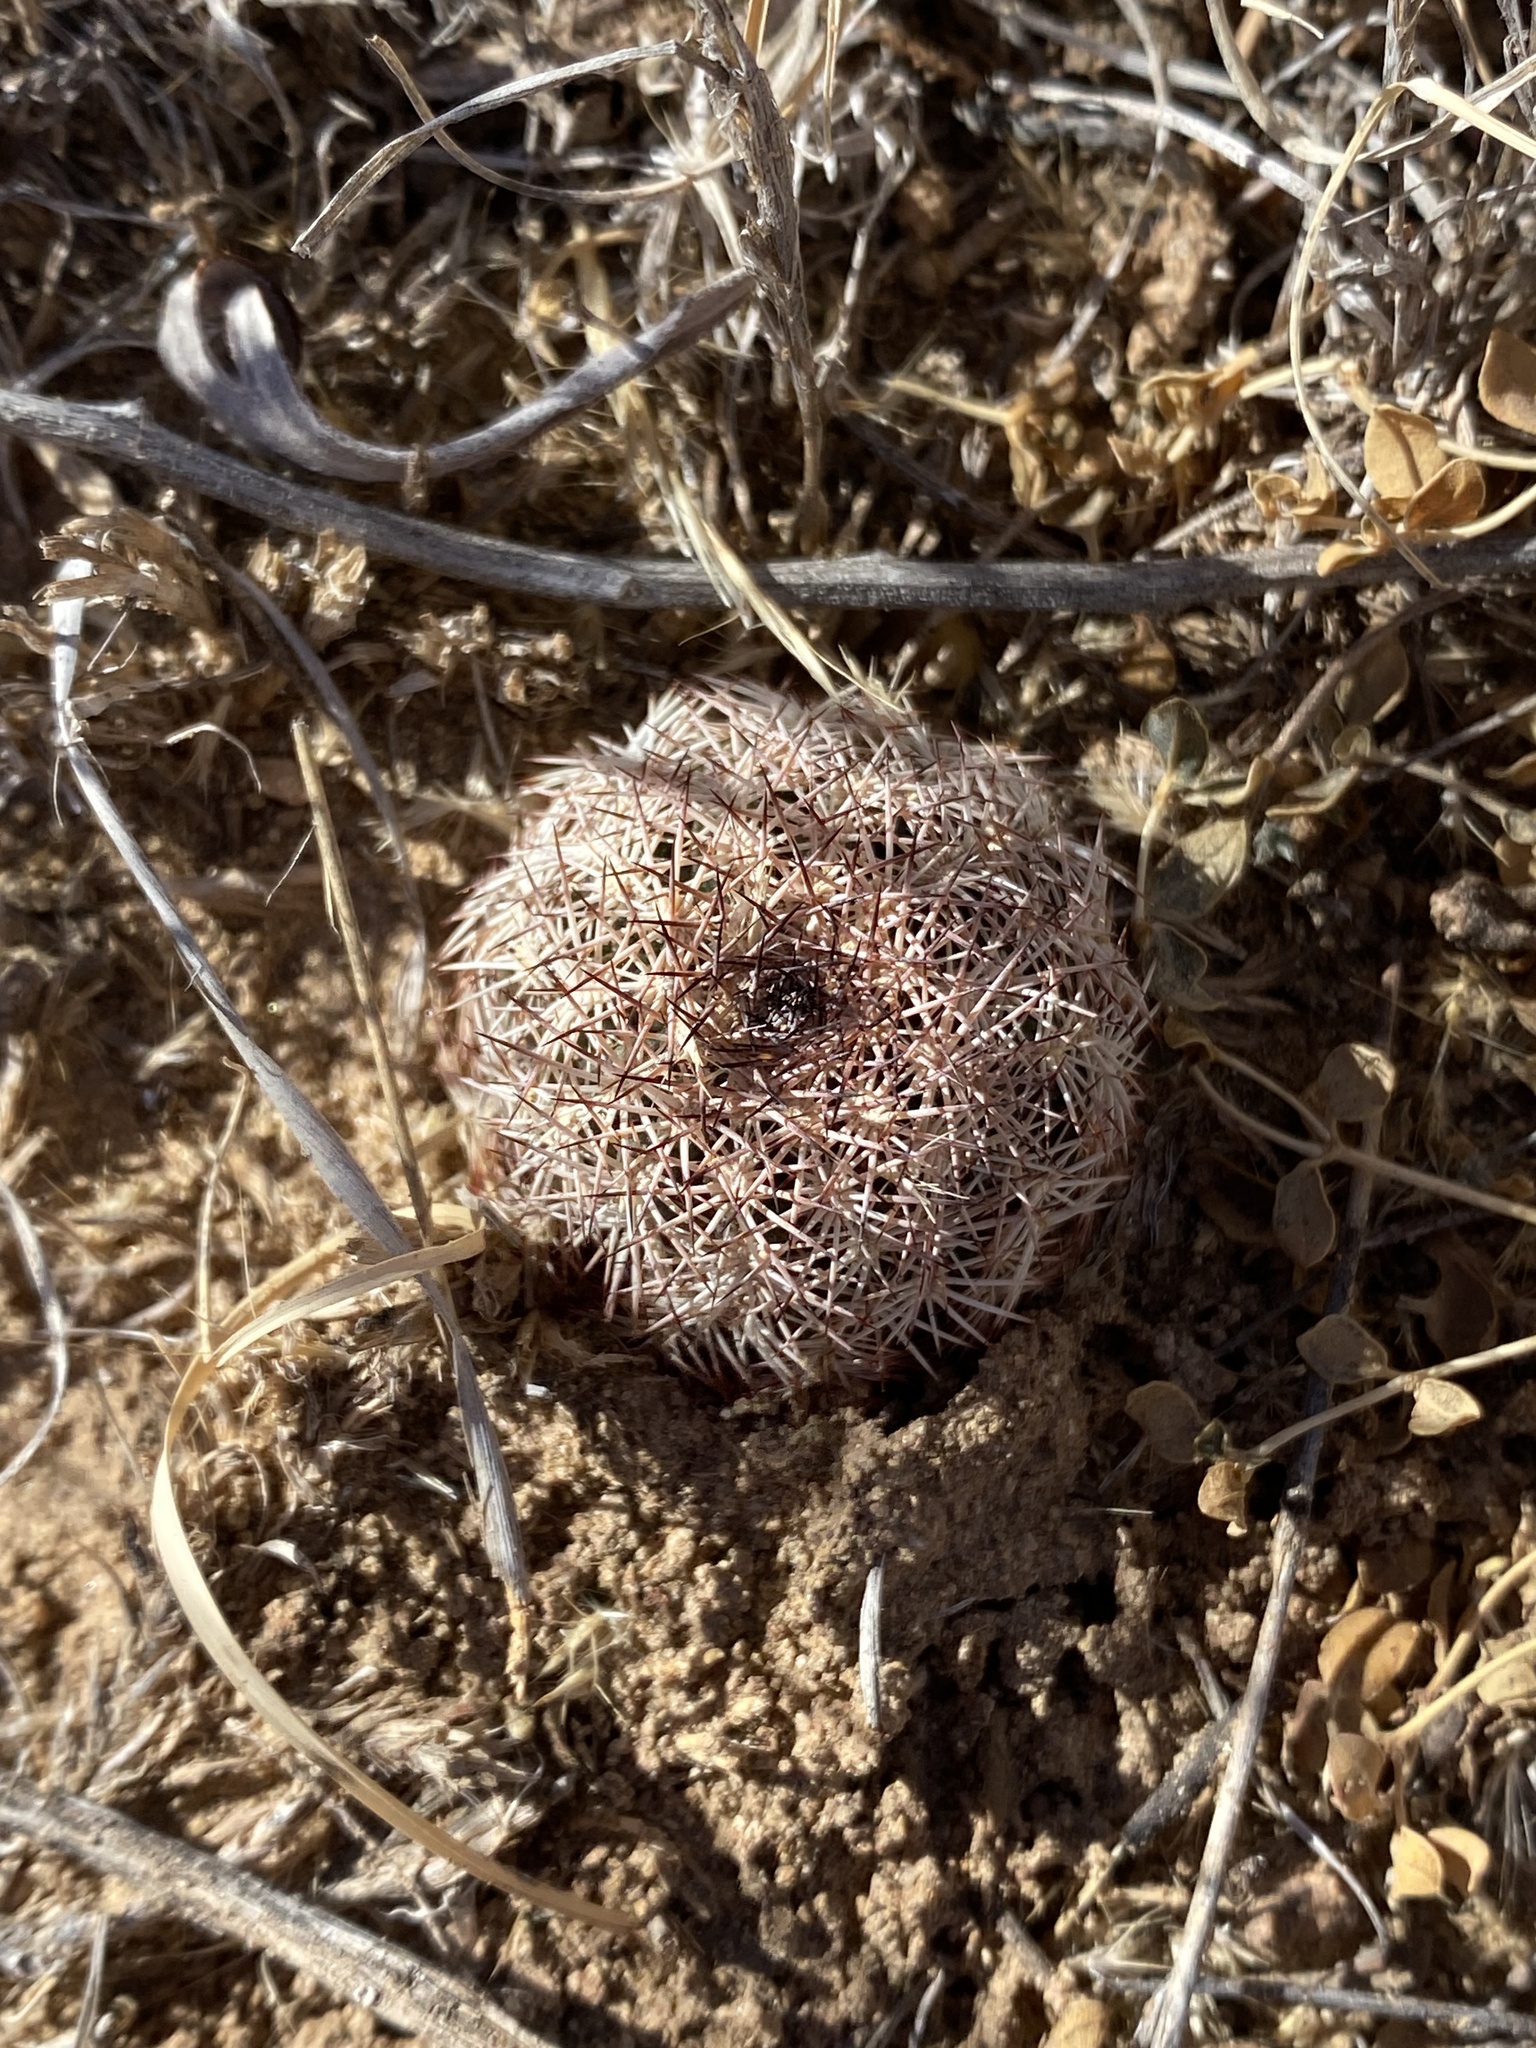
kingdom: Plantae
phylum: Tracheophyta
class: Magnoliopsida
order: Caryophyllales
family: Cactaceae
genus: Echinocereus
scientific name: Echinocereus reichenbachii
